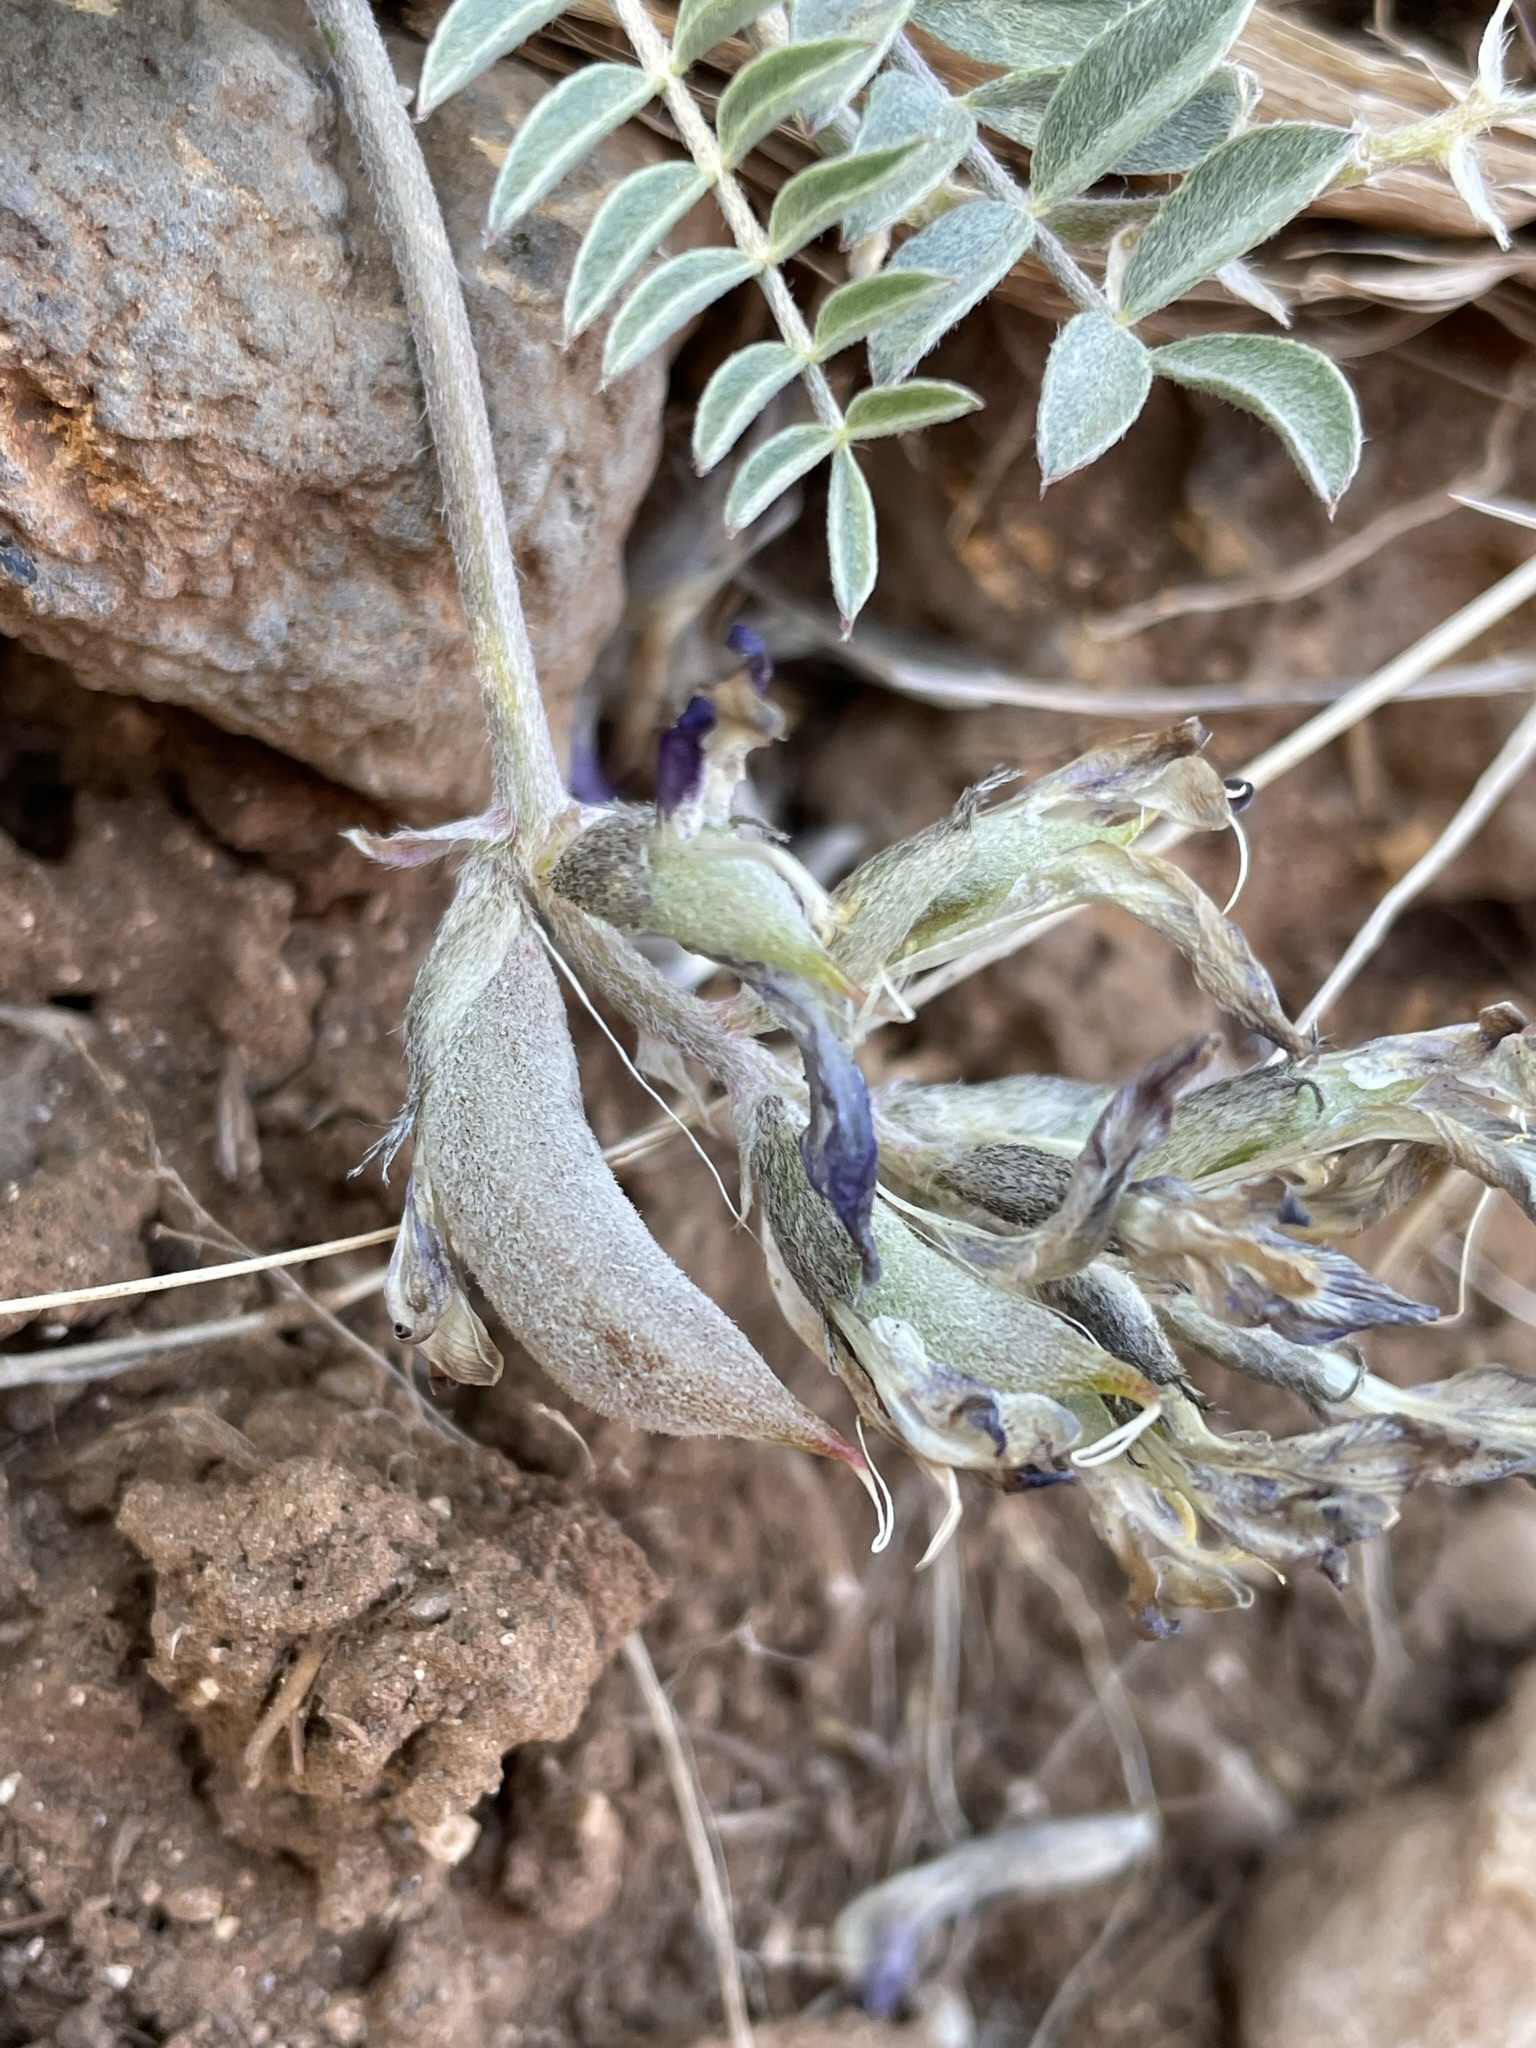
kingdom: Plantae
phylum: Tracheophyta
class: Magnoliopsida
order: Fabales
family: Fabaceae
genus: Astragalus
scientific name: Astragalus argophyllus
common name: Silverleaf milk-vetch
